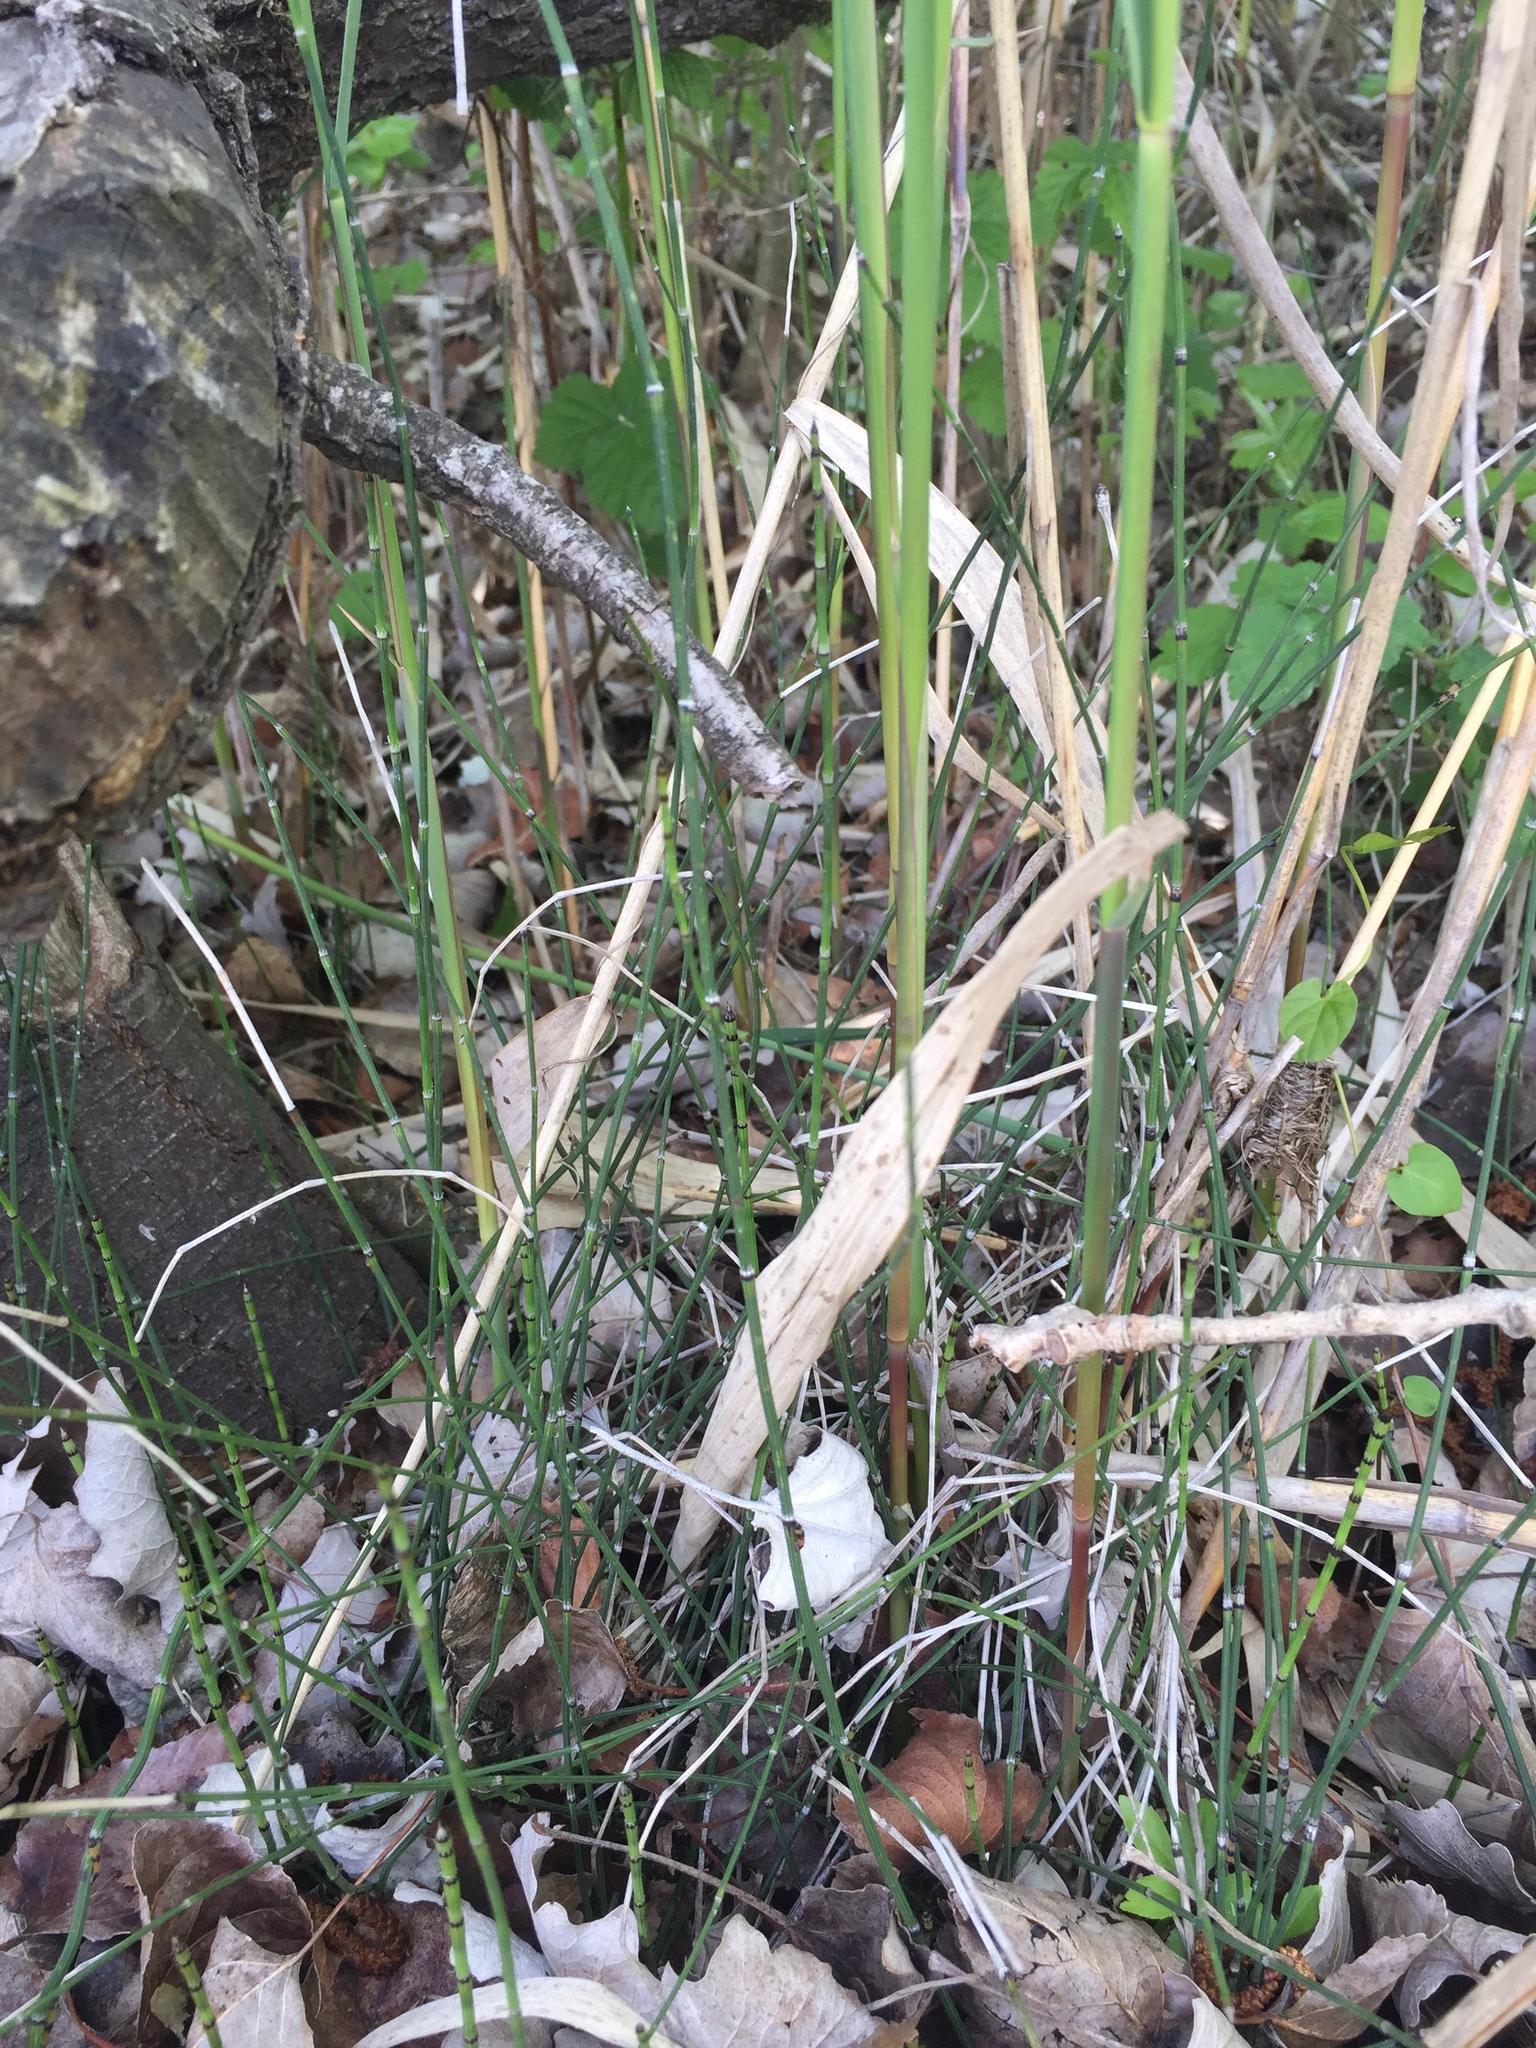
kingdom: Plantae
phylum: Tracheophyta
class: Polypodiopsida
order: Equisetales
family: Equisetaceae
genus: Equisetum
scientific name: Equisetum variegatum
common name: Variegated horsetail
